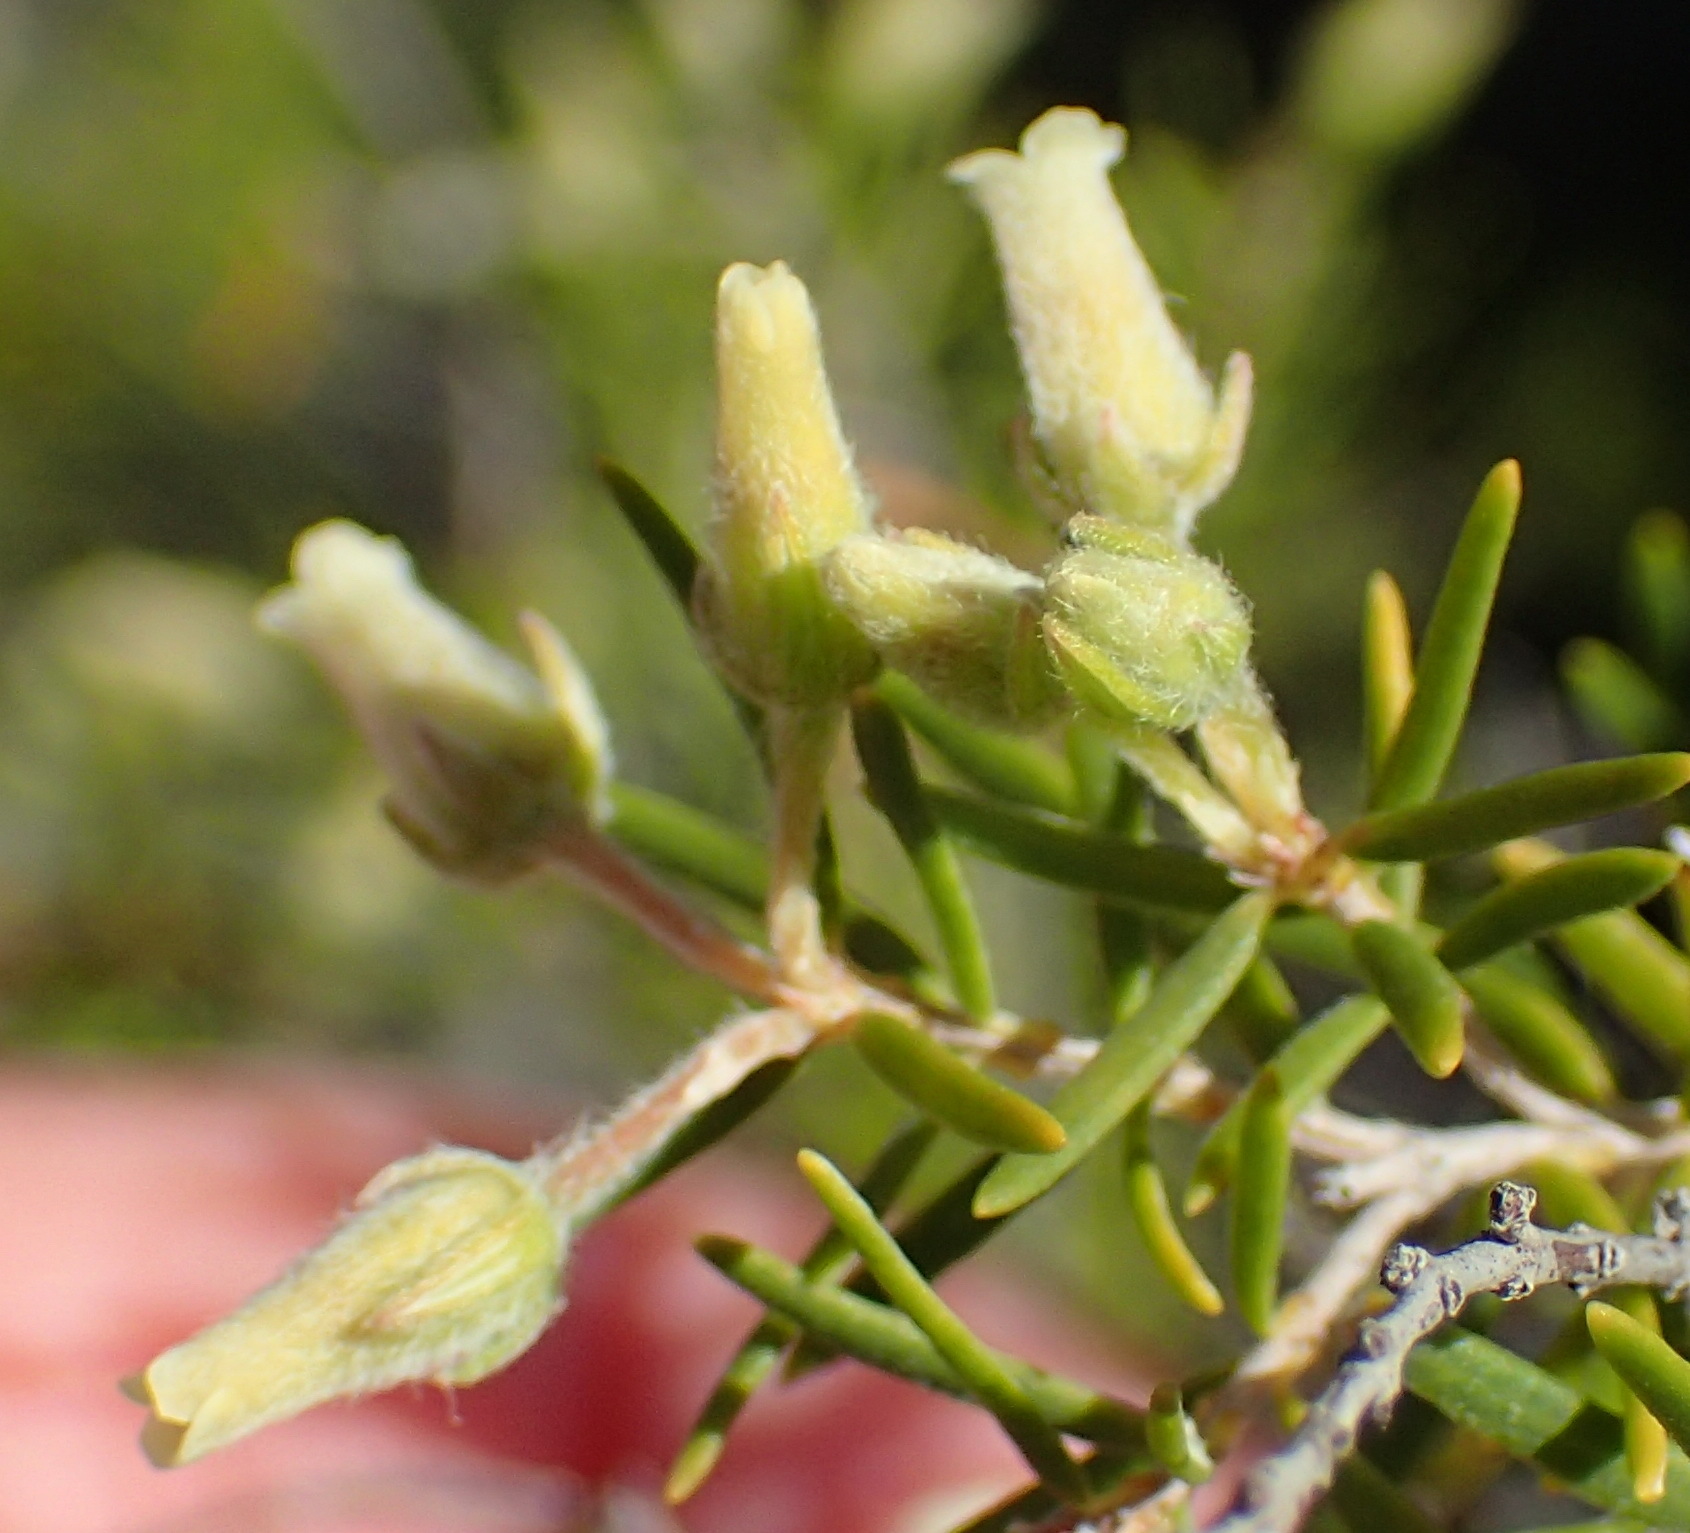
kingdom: Plantae
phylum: Tracheophyta
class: Magnoliopsida
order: Ericales
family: Ericaceae
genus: Erica
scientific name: Erica caffra
